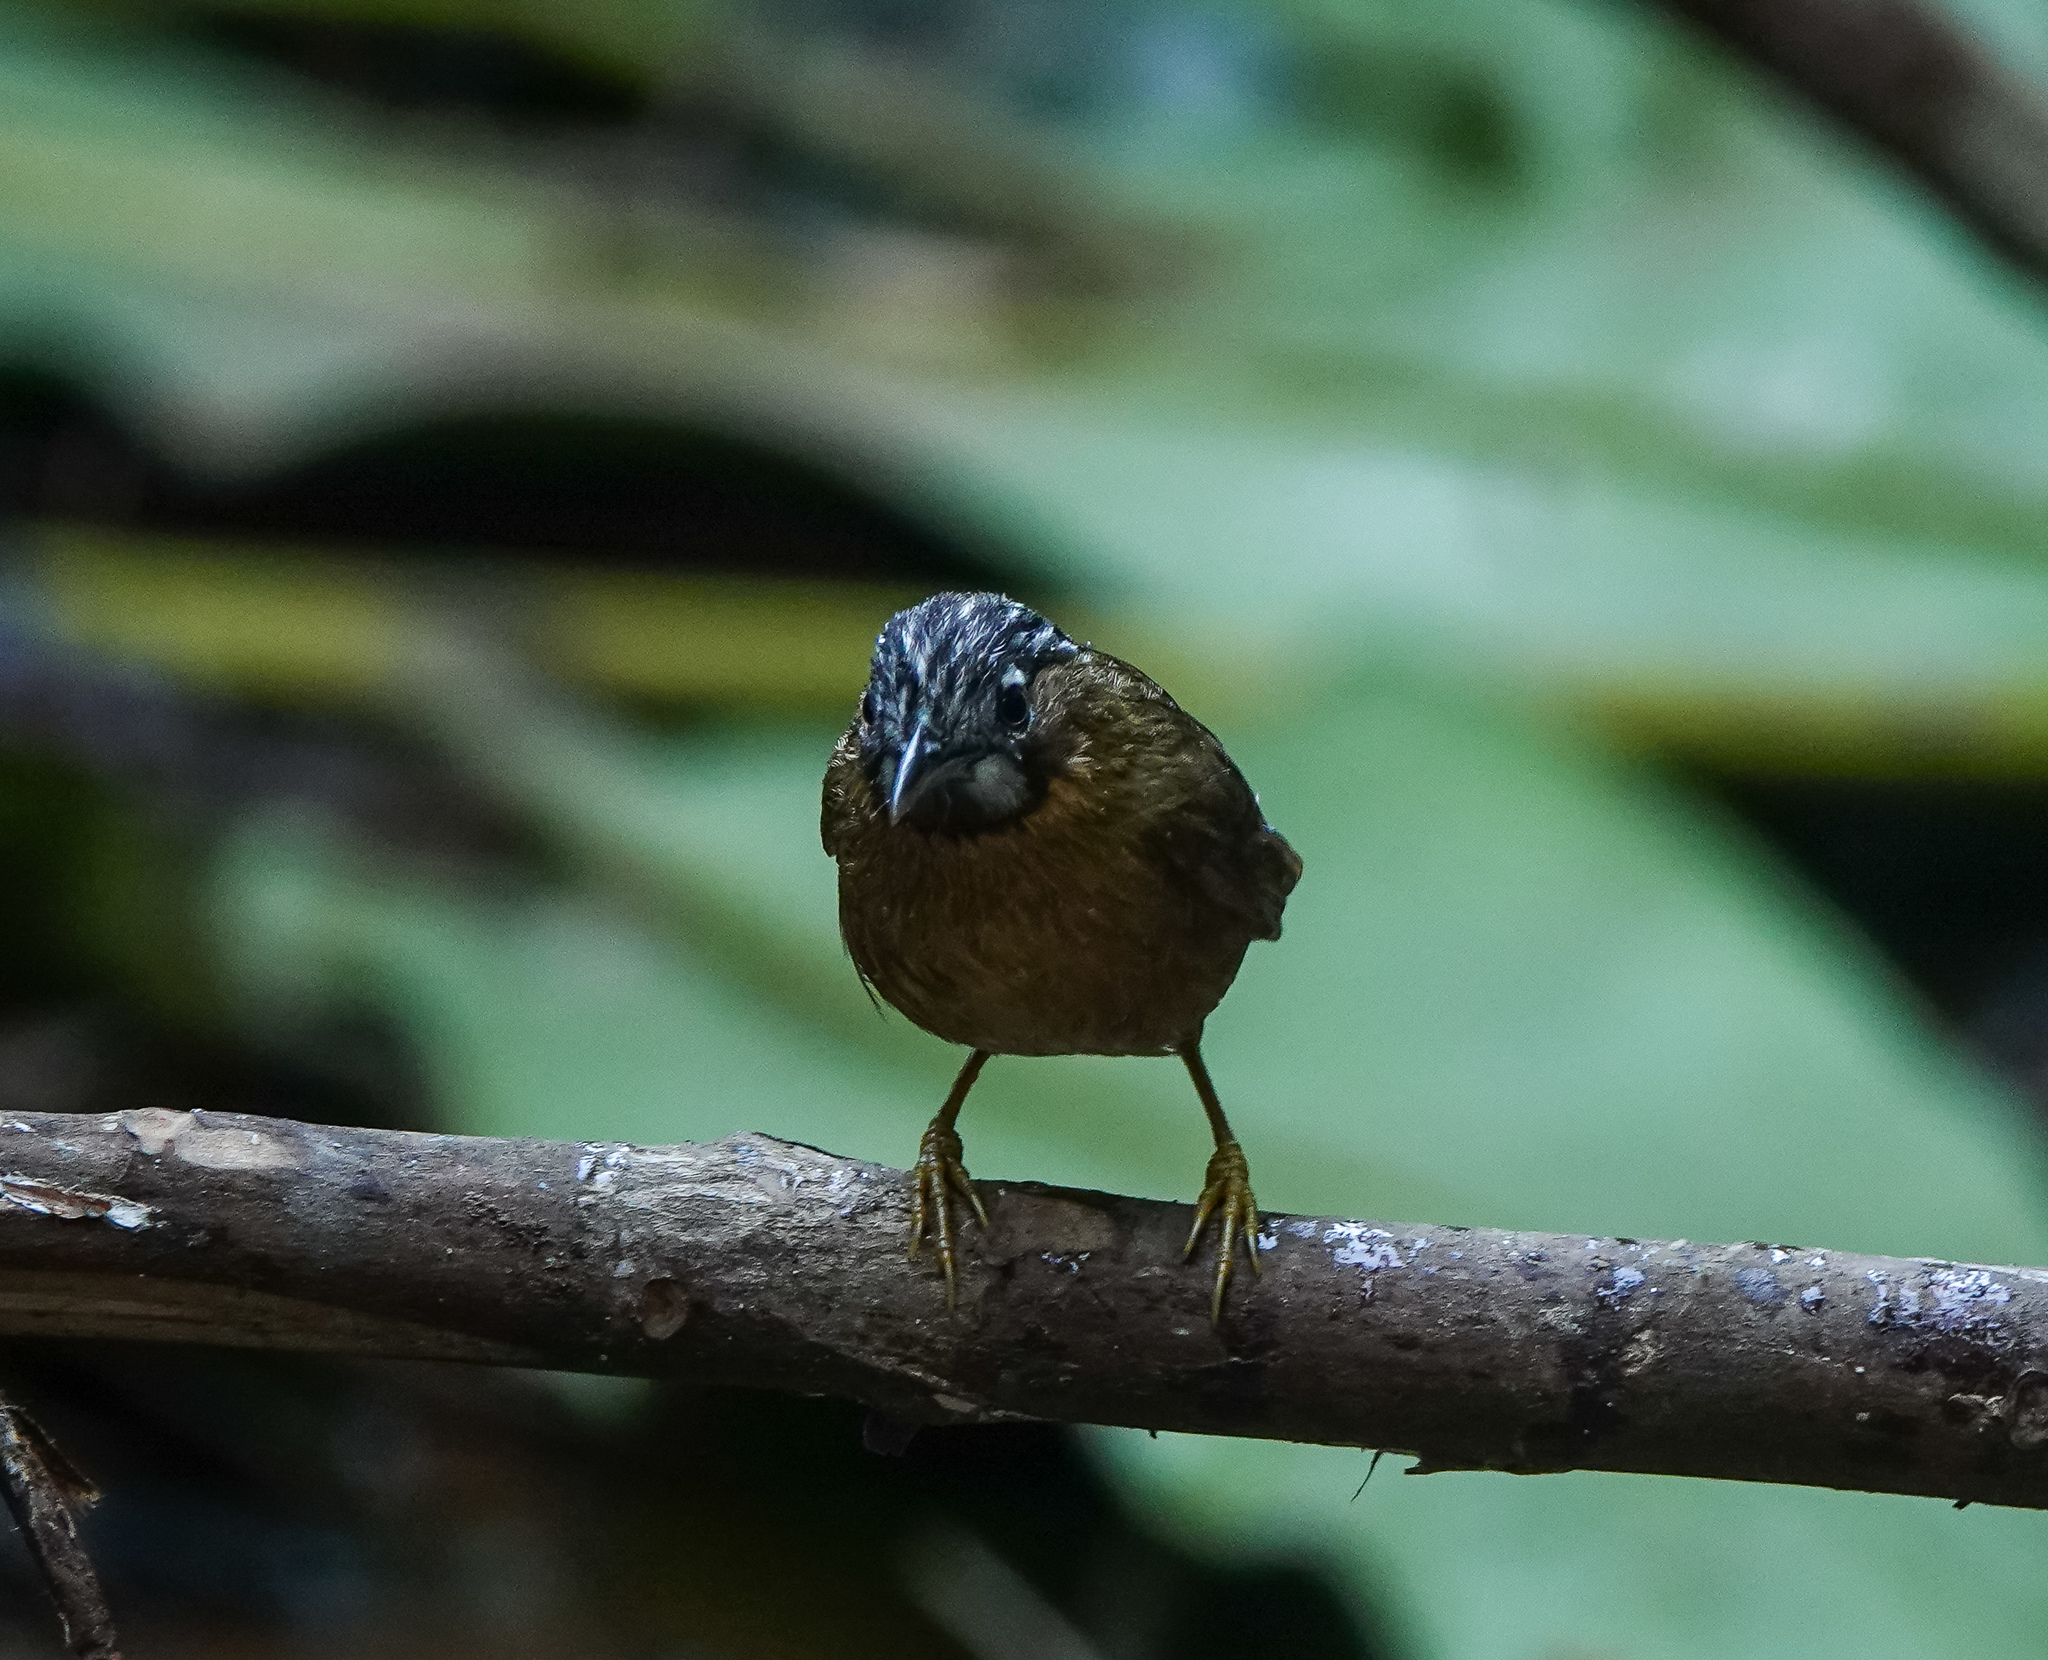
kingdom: Animalia
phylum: Chordata
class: Aves
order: Passeriformes
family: Timaliidae
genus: Stachyris
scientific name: Stachyris nigriceps
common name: Grey-throated babbler
